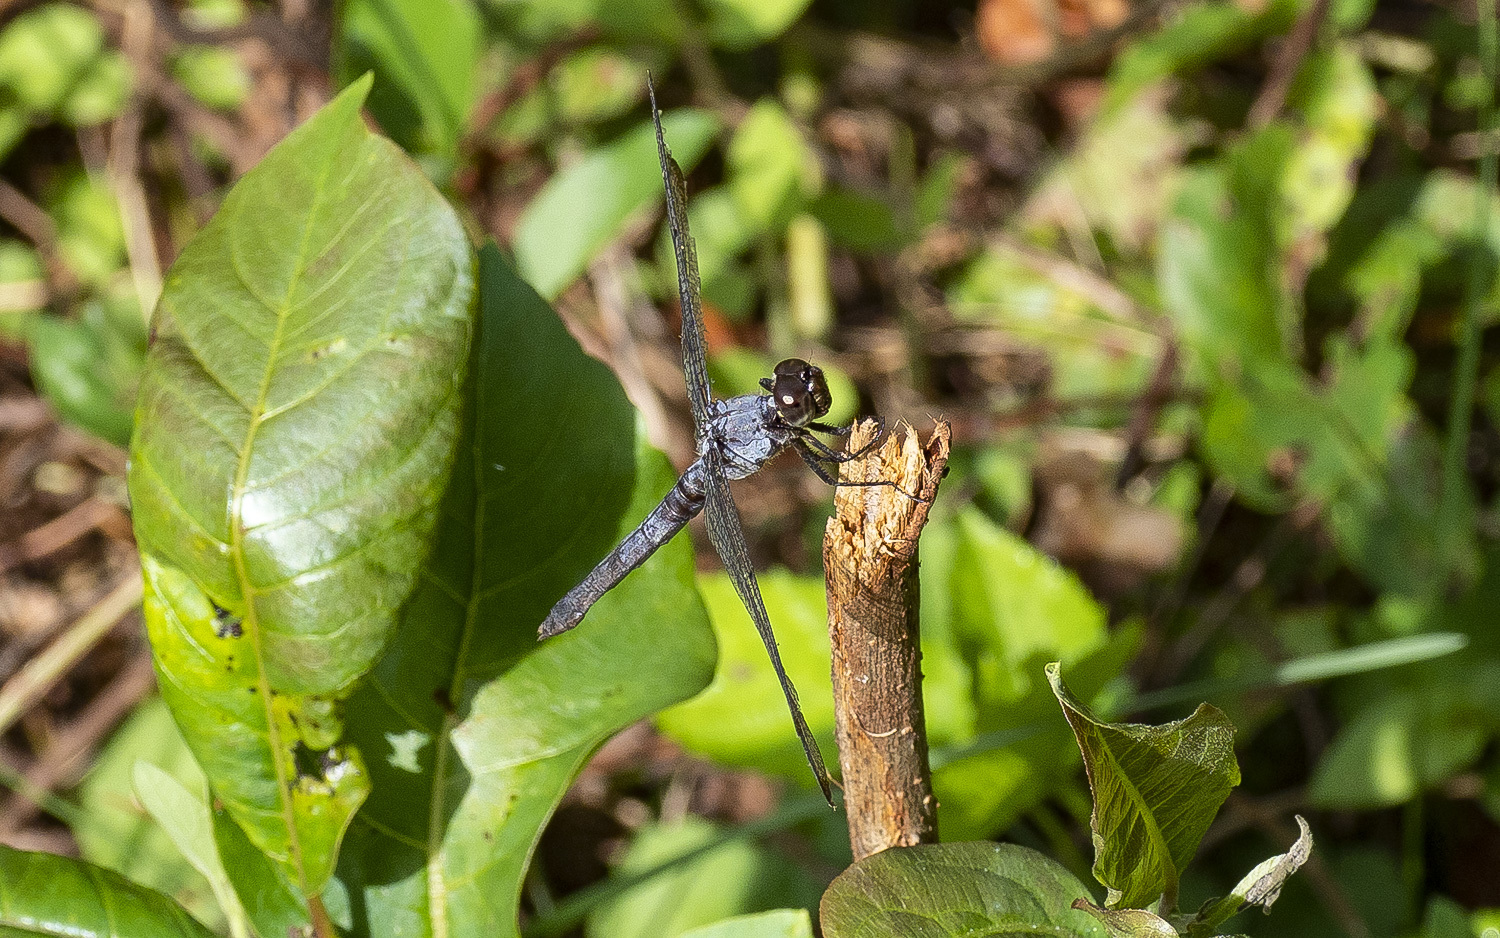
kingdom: Animalia
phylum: Arthropoda
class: Insecta
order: Odonata
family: Libellulidae
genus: Libellula
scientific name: Libellula incesta
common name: Slaty skimmer
